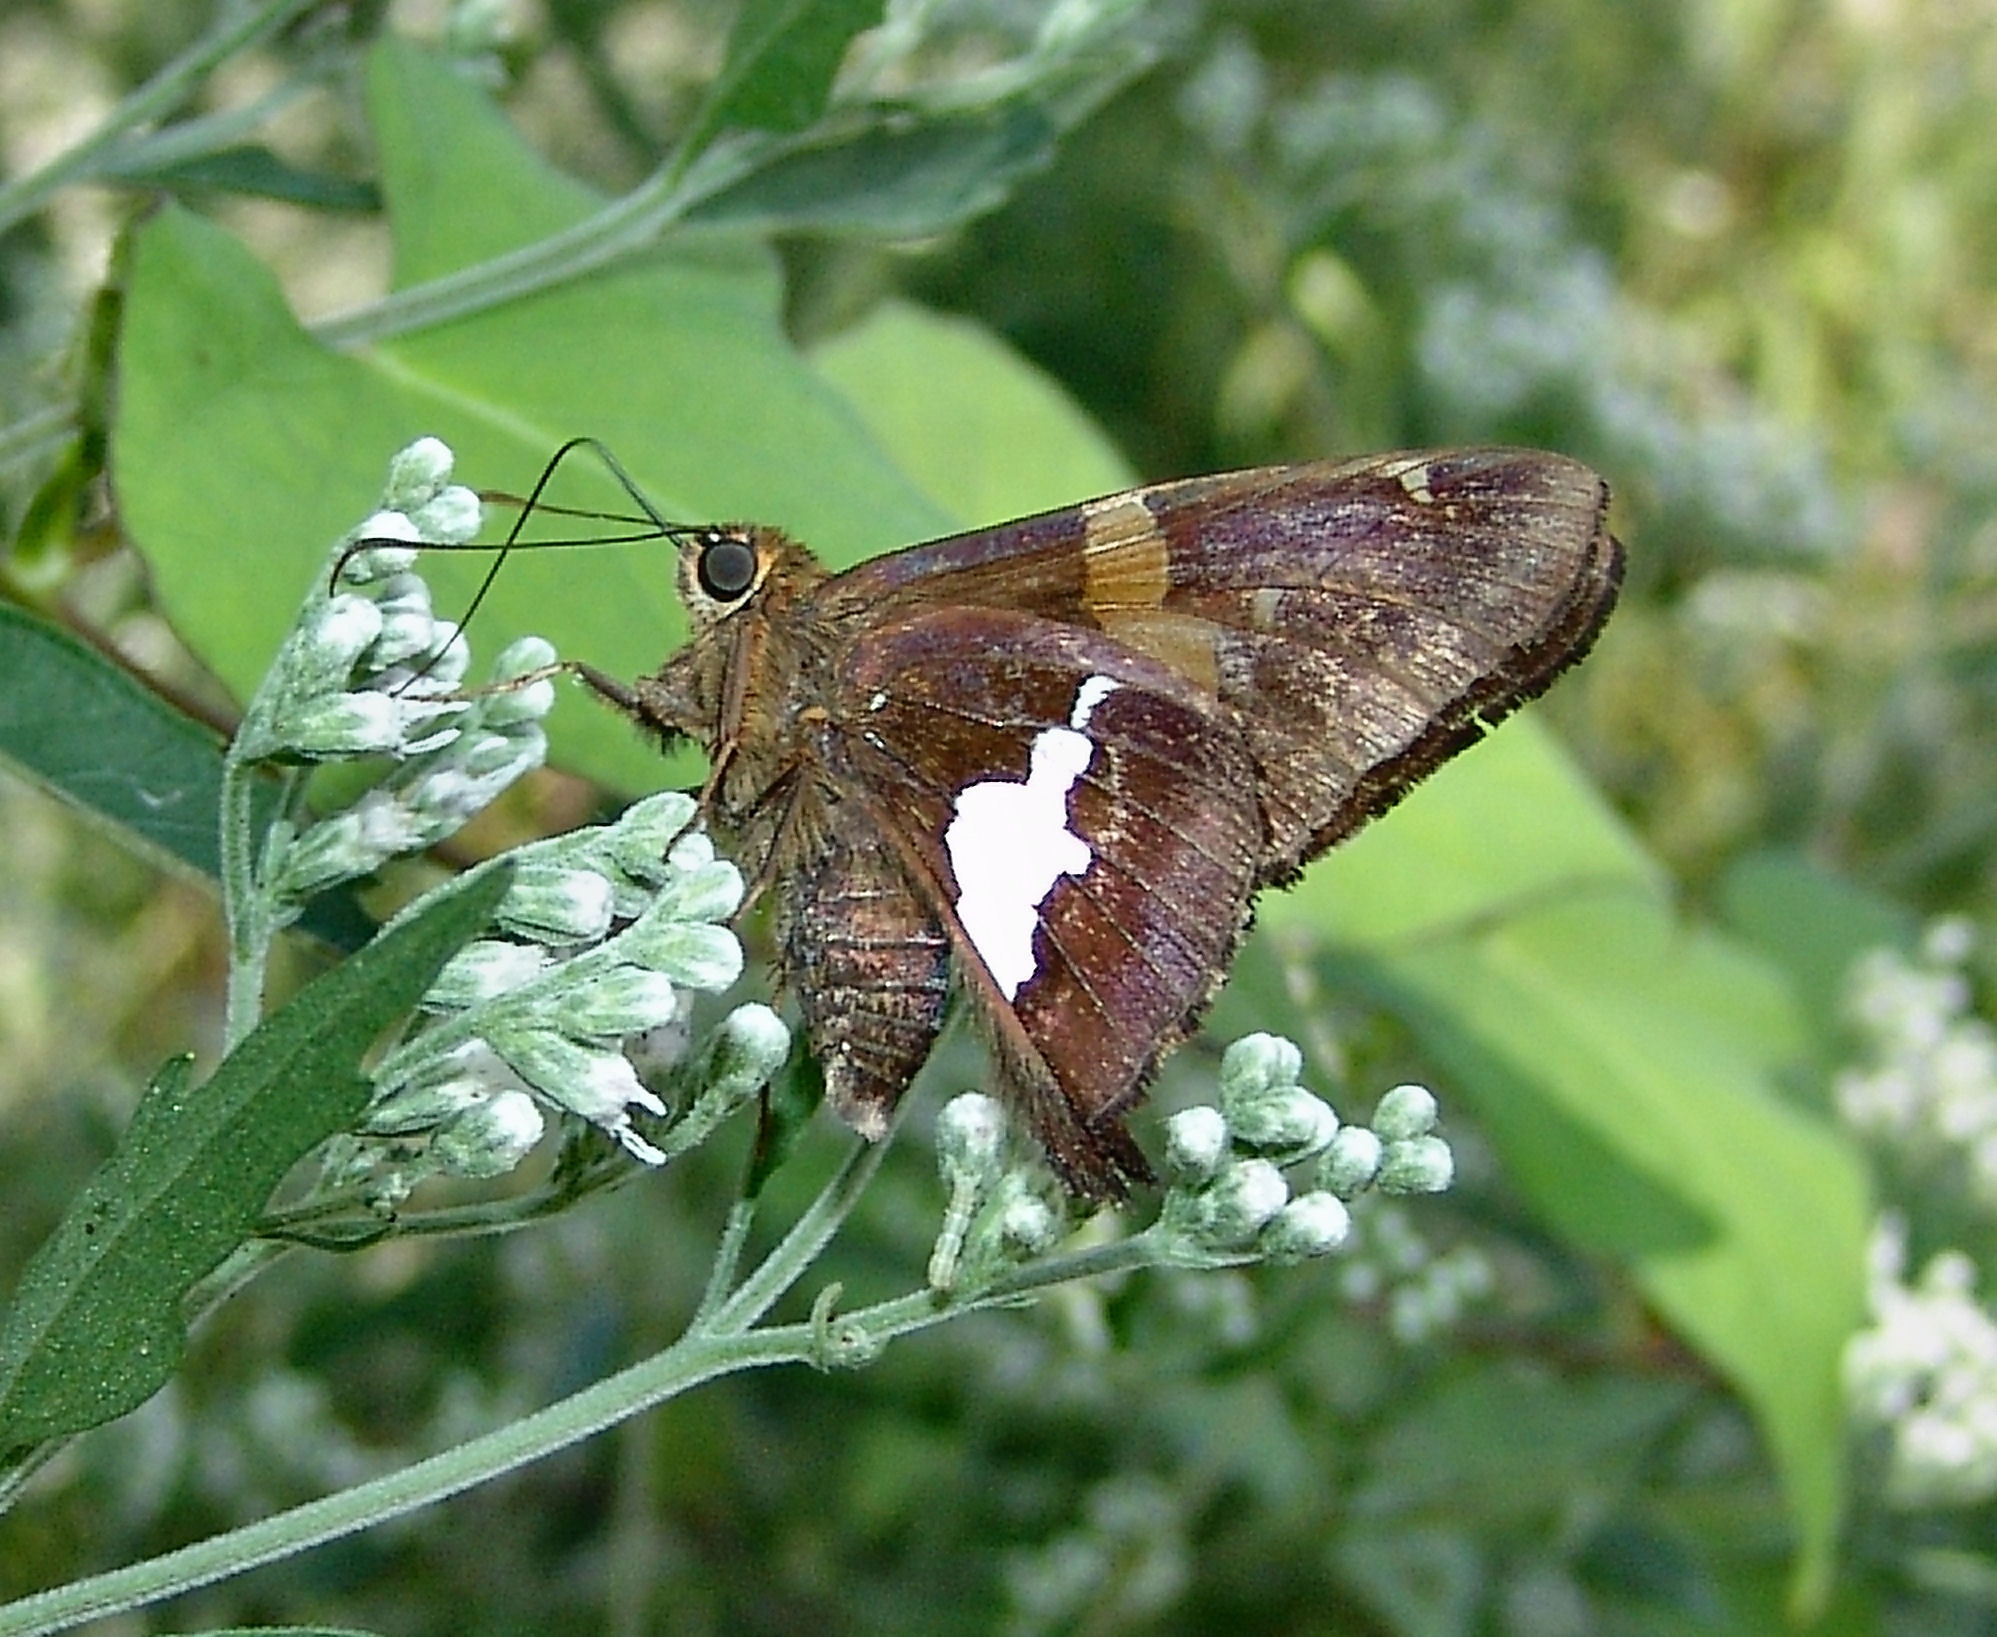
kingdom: Animalia
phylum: Arthropoda
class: Insecta
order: Lepidoptera
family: Hesperiidae
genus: Epargyreus
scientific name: Epargyreus clarus
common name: Silver-spotted skipper
